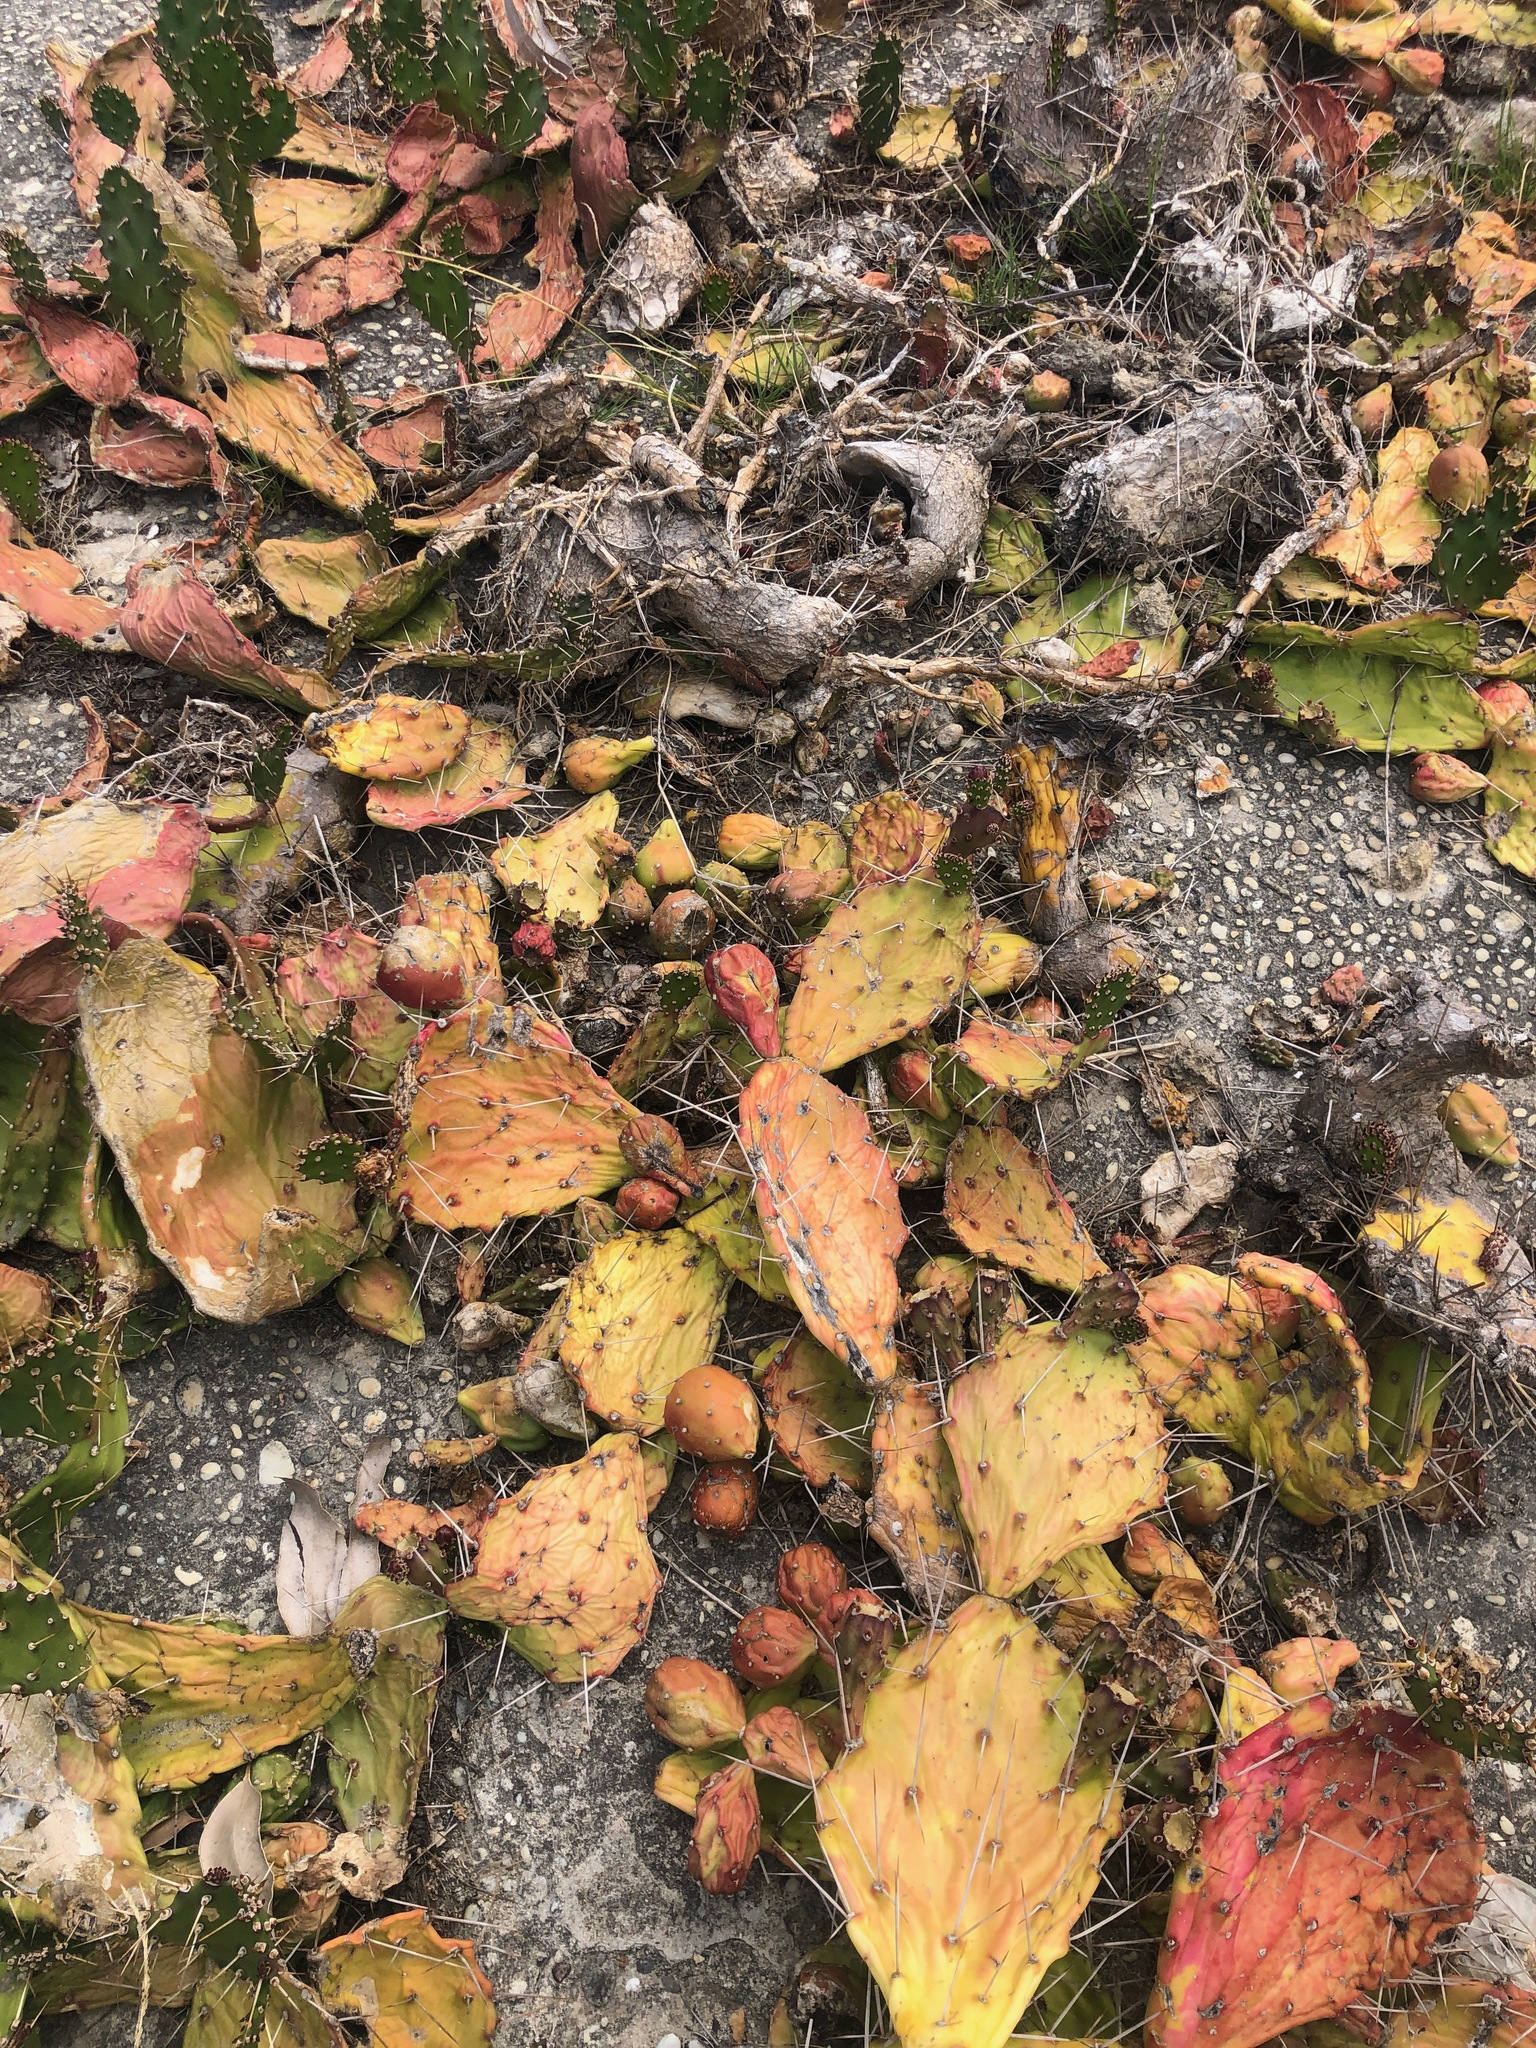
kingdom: Plantae
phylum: Tracheophyta
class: Magnoliopsida
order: Caryophyllales
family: Cactaceae
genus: Opuntia
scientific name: Opuntia monacantha
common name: Common pricklypear
